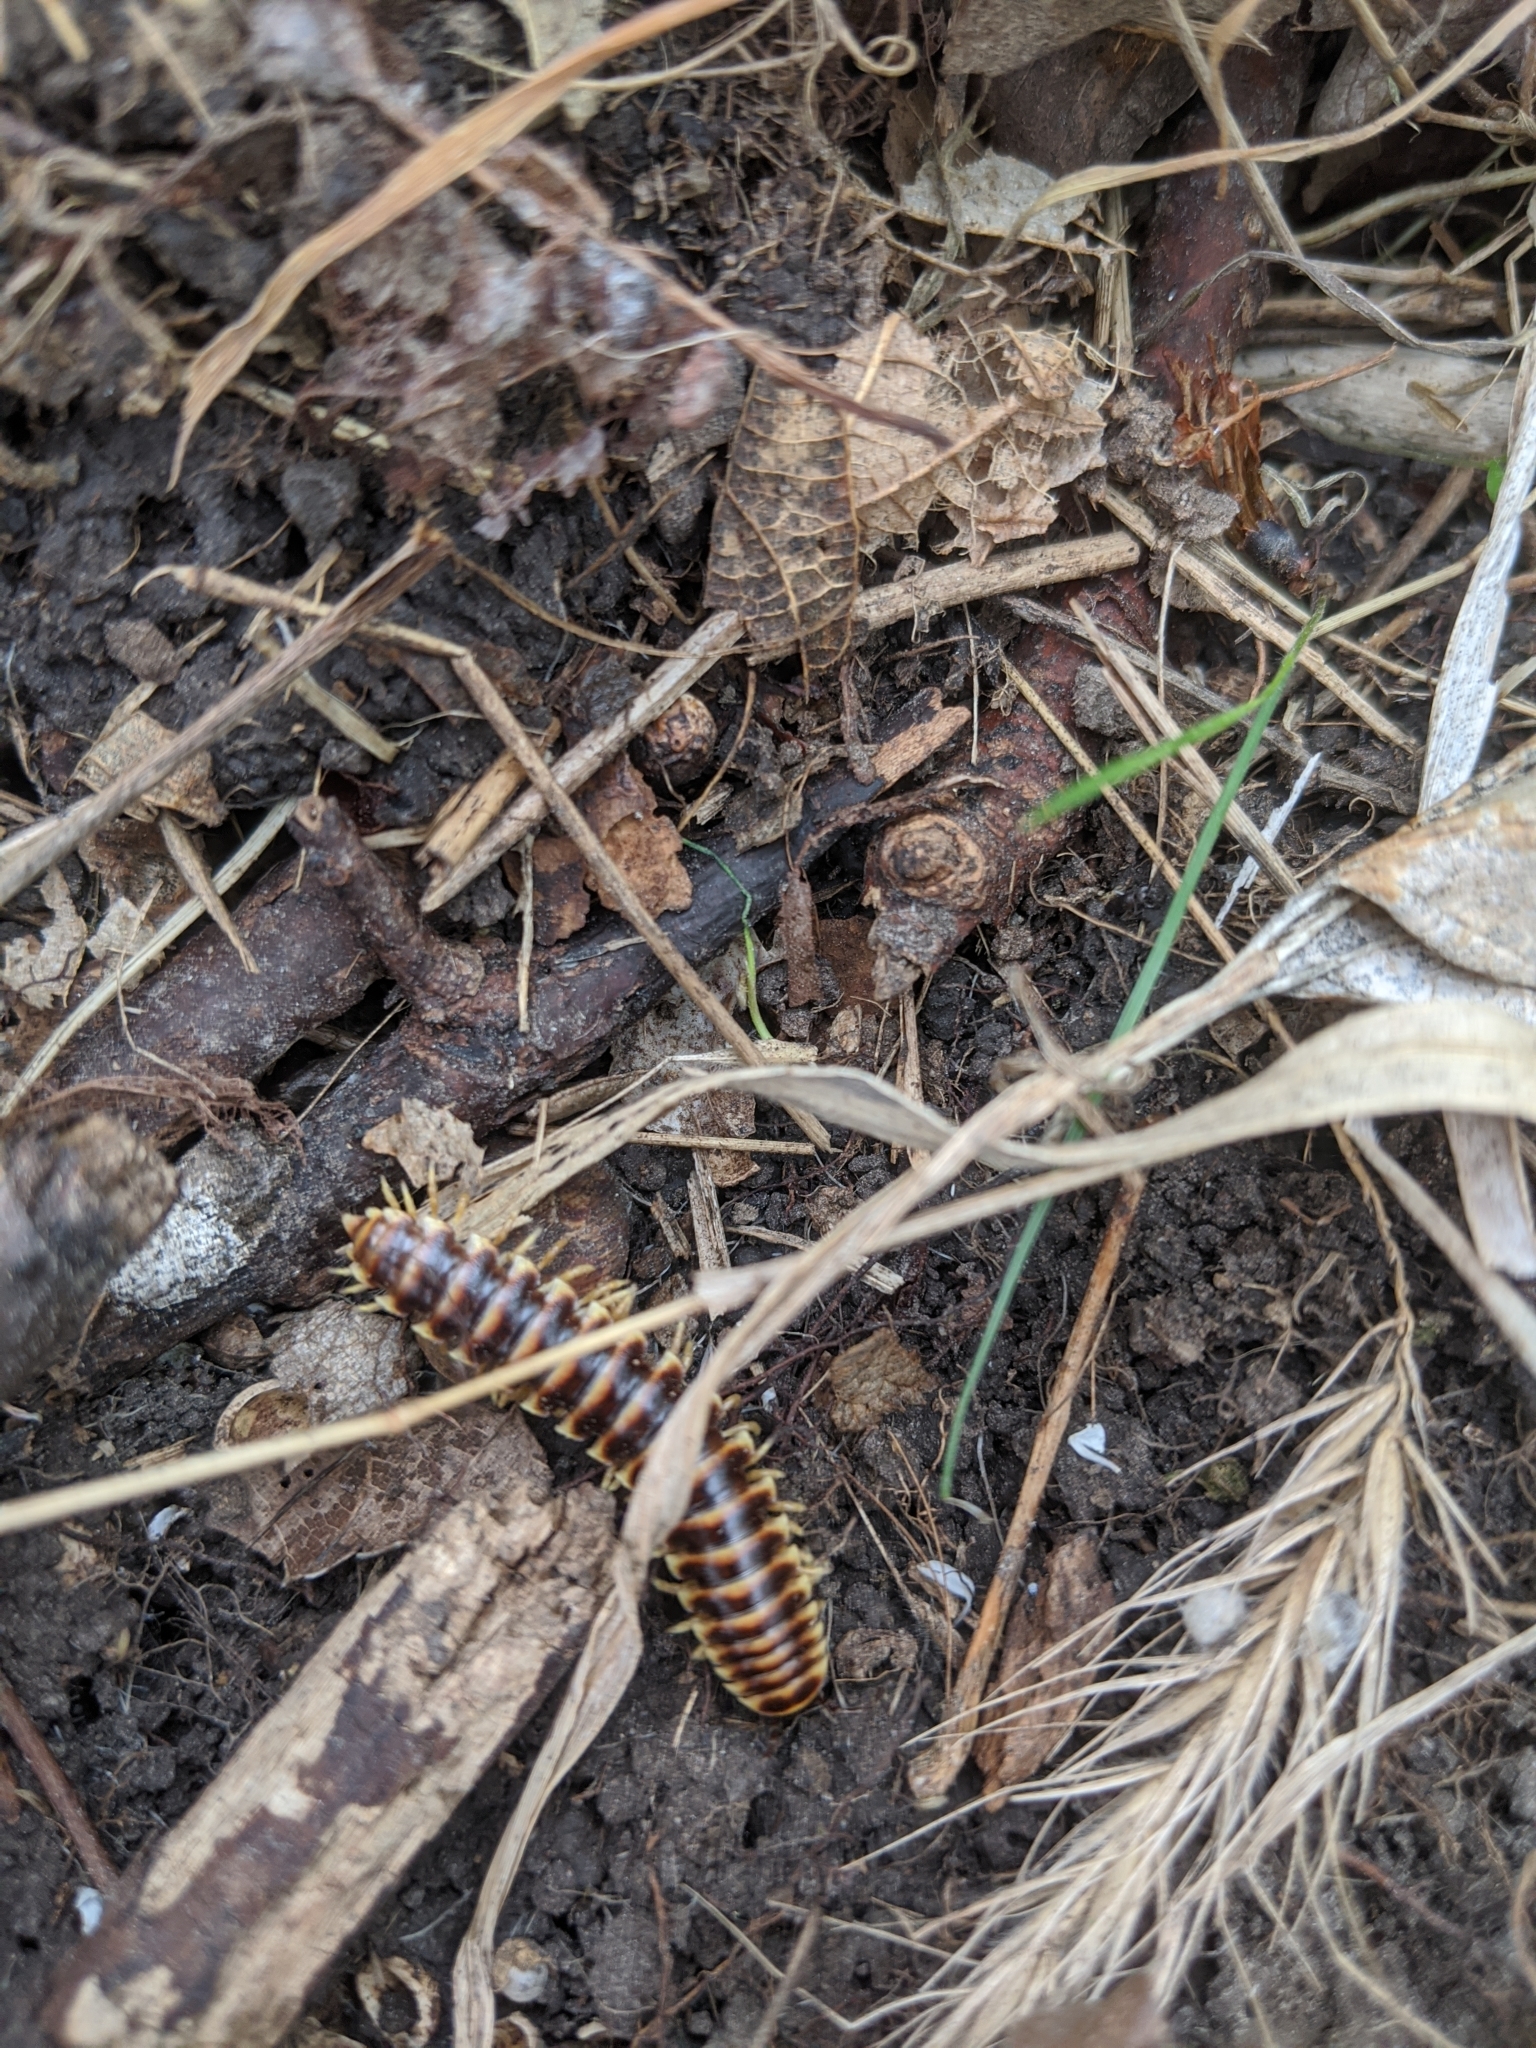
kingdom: Animalia
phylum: Arthropoda
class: Diplopoda
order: Polydesmida
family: Xystodesmidae
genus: Pleuroloma
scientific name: Pleuroloma flavipes
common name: Yellow-legged pleuroloma
